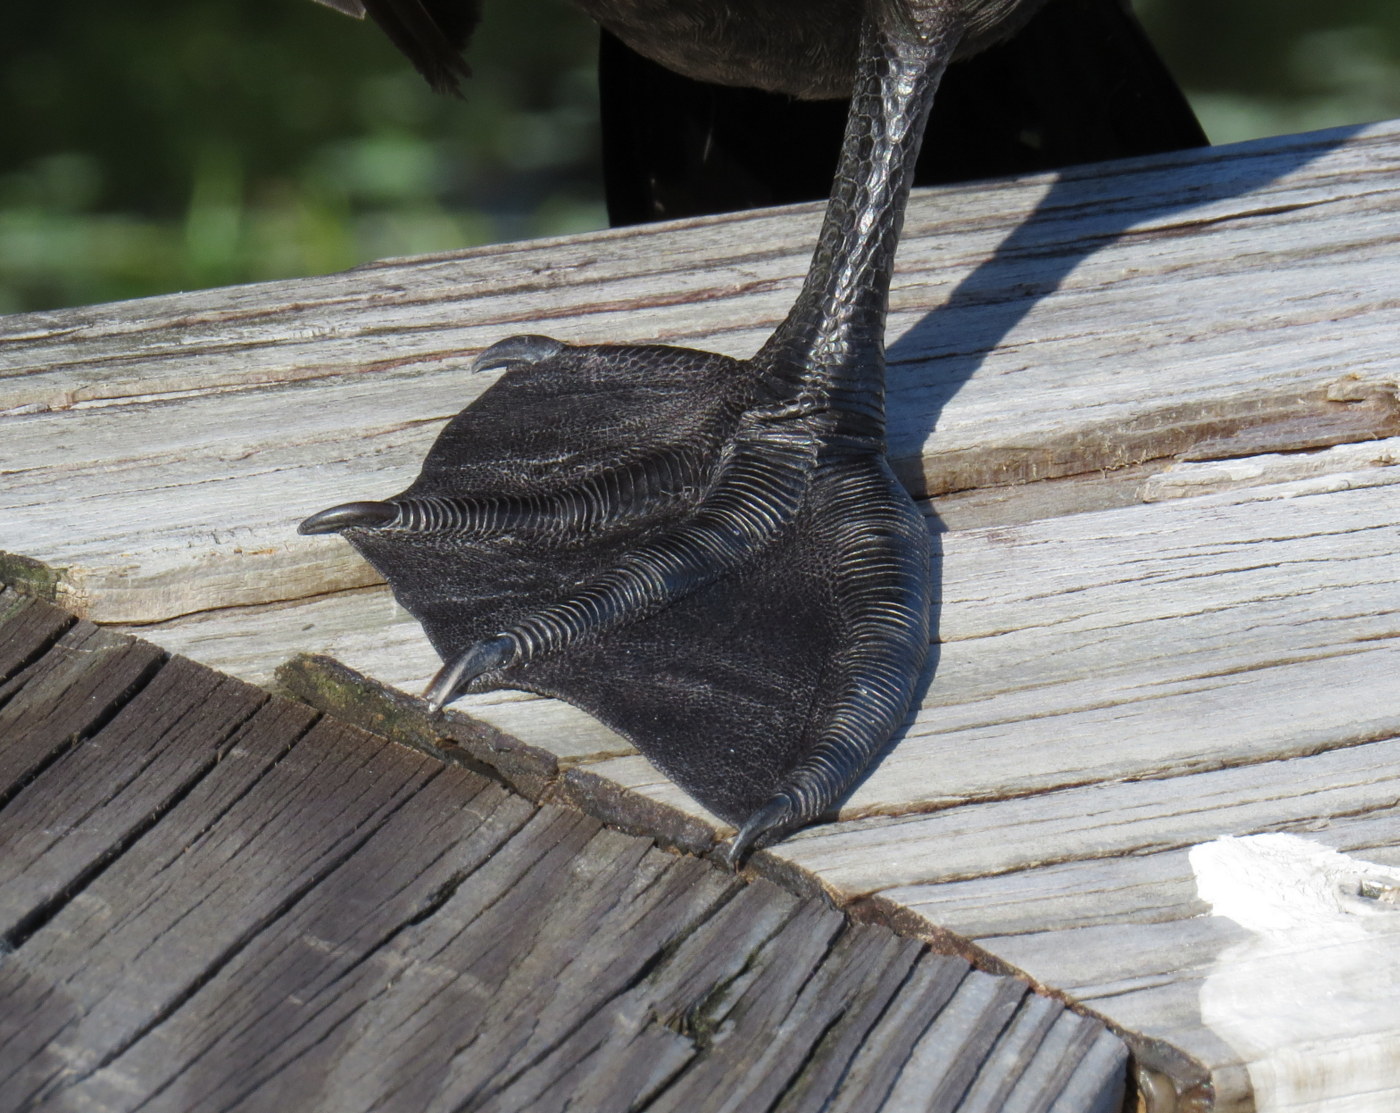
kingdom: Animalia
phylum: Chordata
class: Aves
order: Suliformes
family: Phalacrocoracidae
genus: Phalacrocorax
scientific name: Phalacrocorax auritus
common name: Double-crested cormorant
